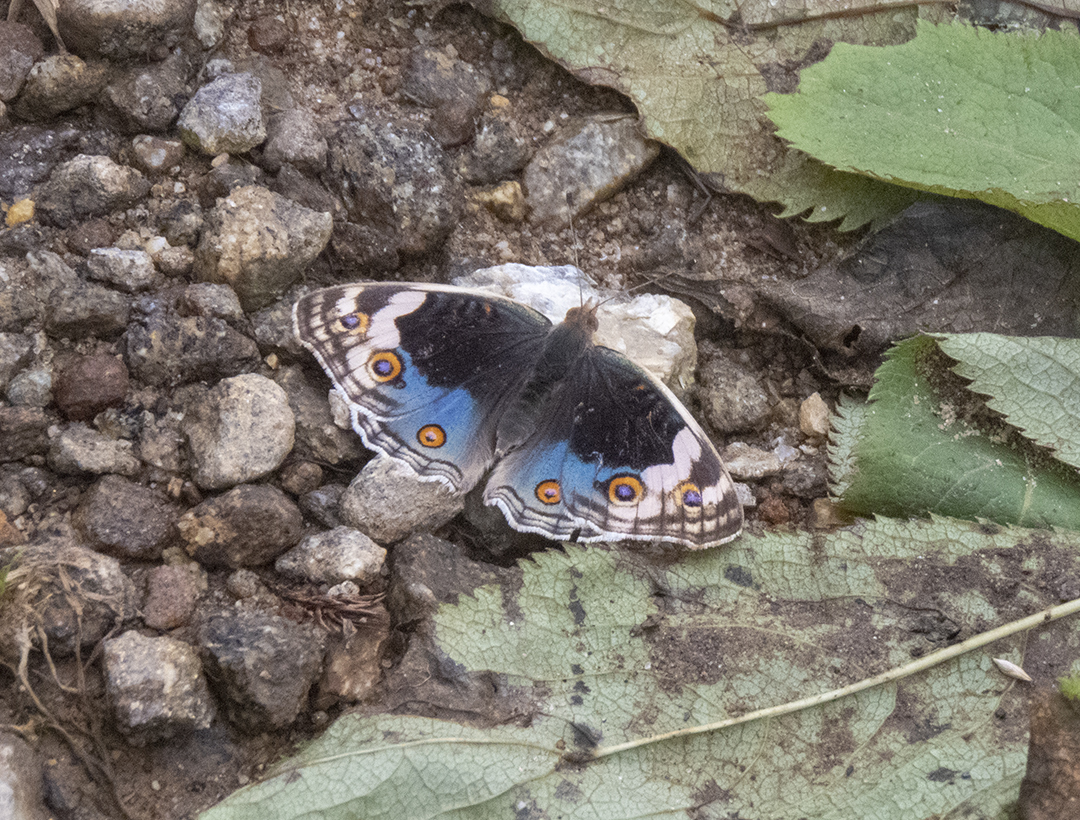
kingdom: Animalia
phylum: Arthropoda
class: Insecta
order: Lepidoptera
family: Nymphalidae
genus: Junonia
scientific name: Junonia orithya
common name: Blue pansy
